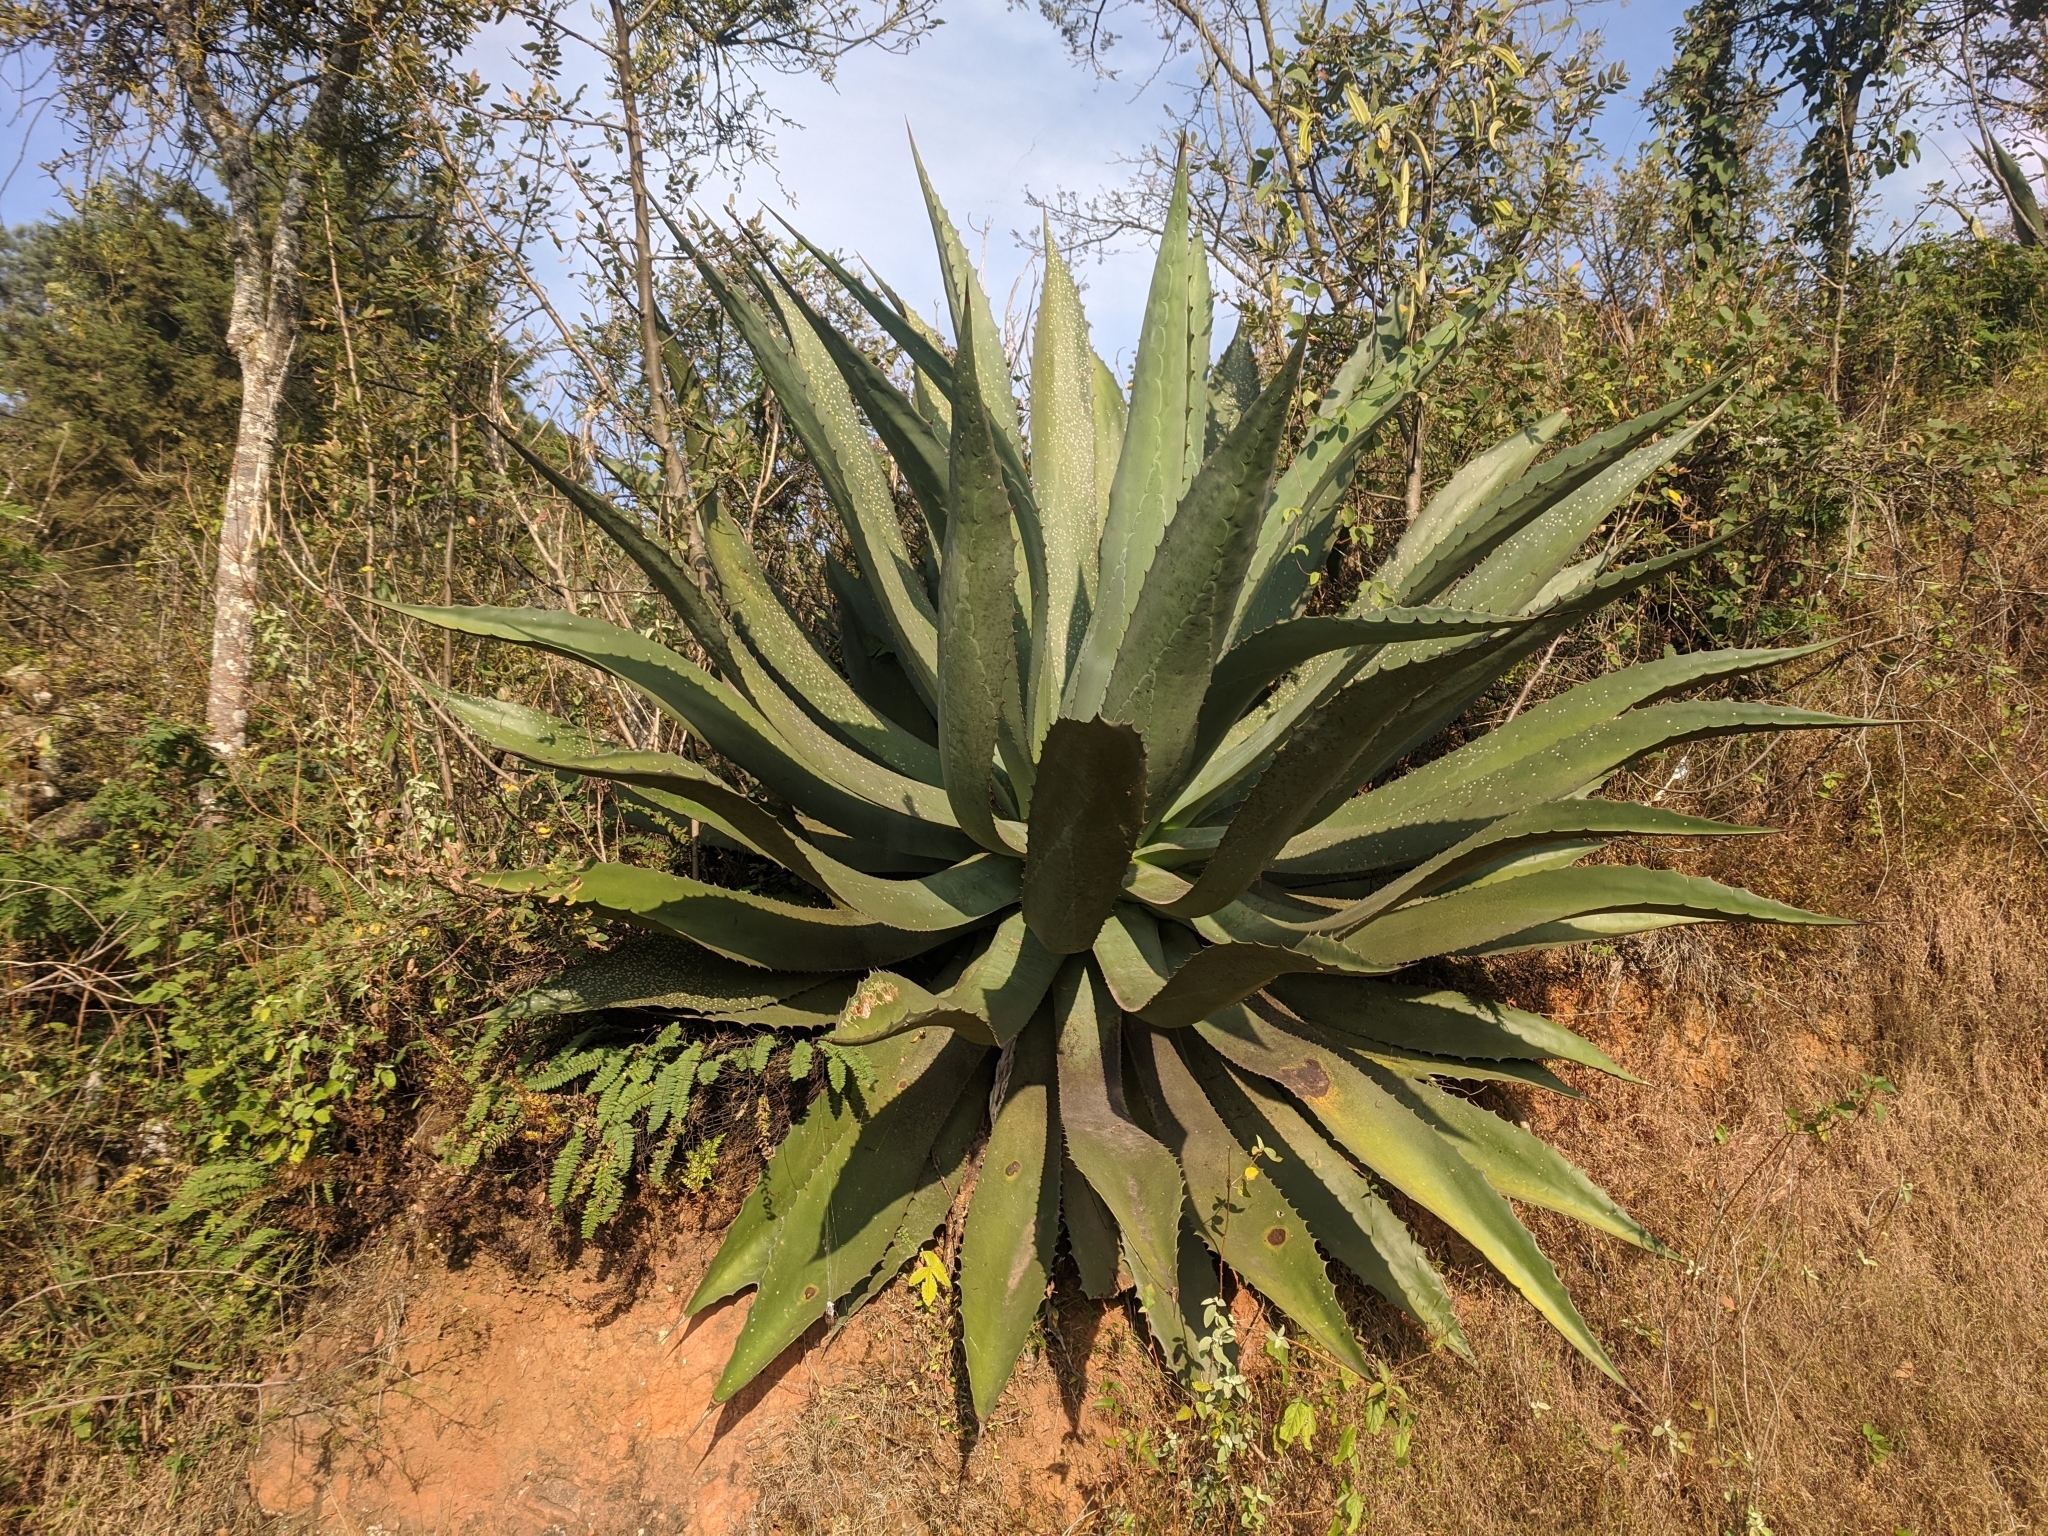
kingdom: Plantae
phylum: Tracheophyta
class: Liliopsida
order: Asparagales
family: Asparagaceae
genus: Agave
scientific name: Agave salmiana
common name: Pulque agave
